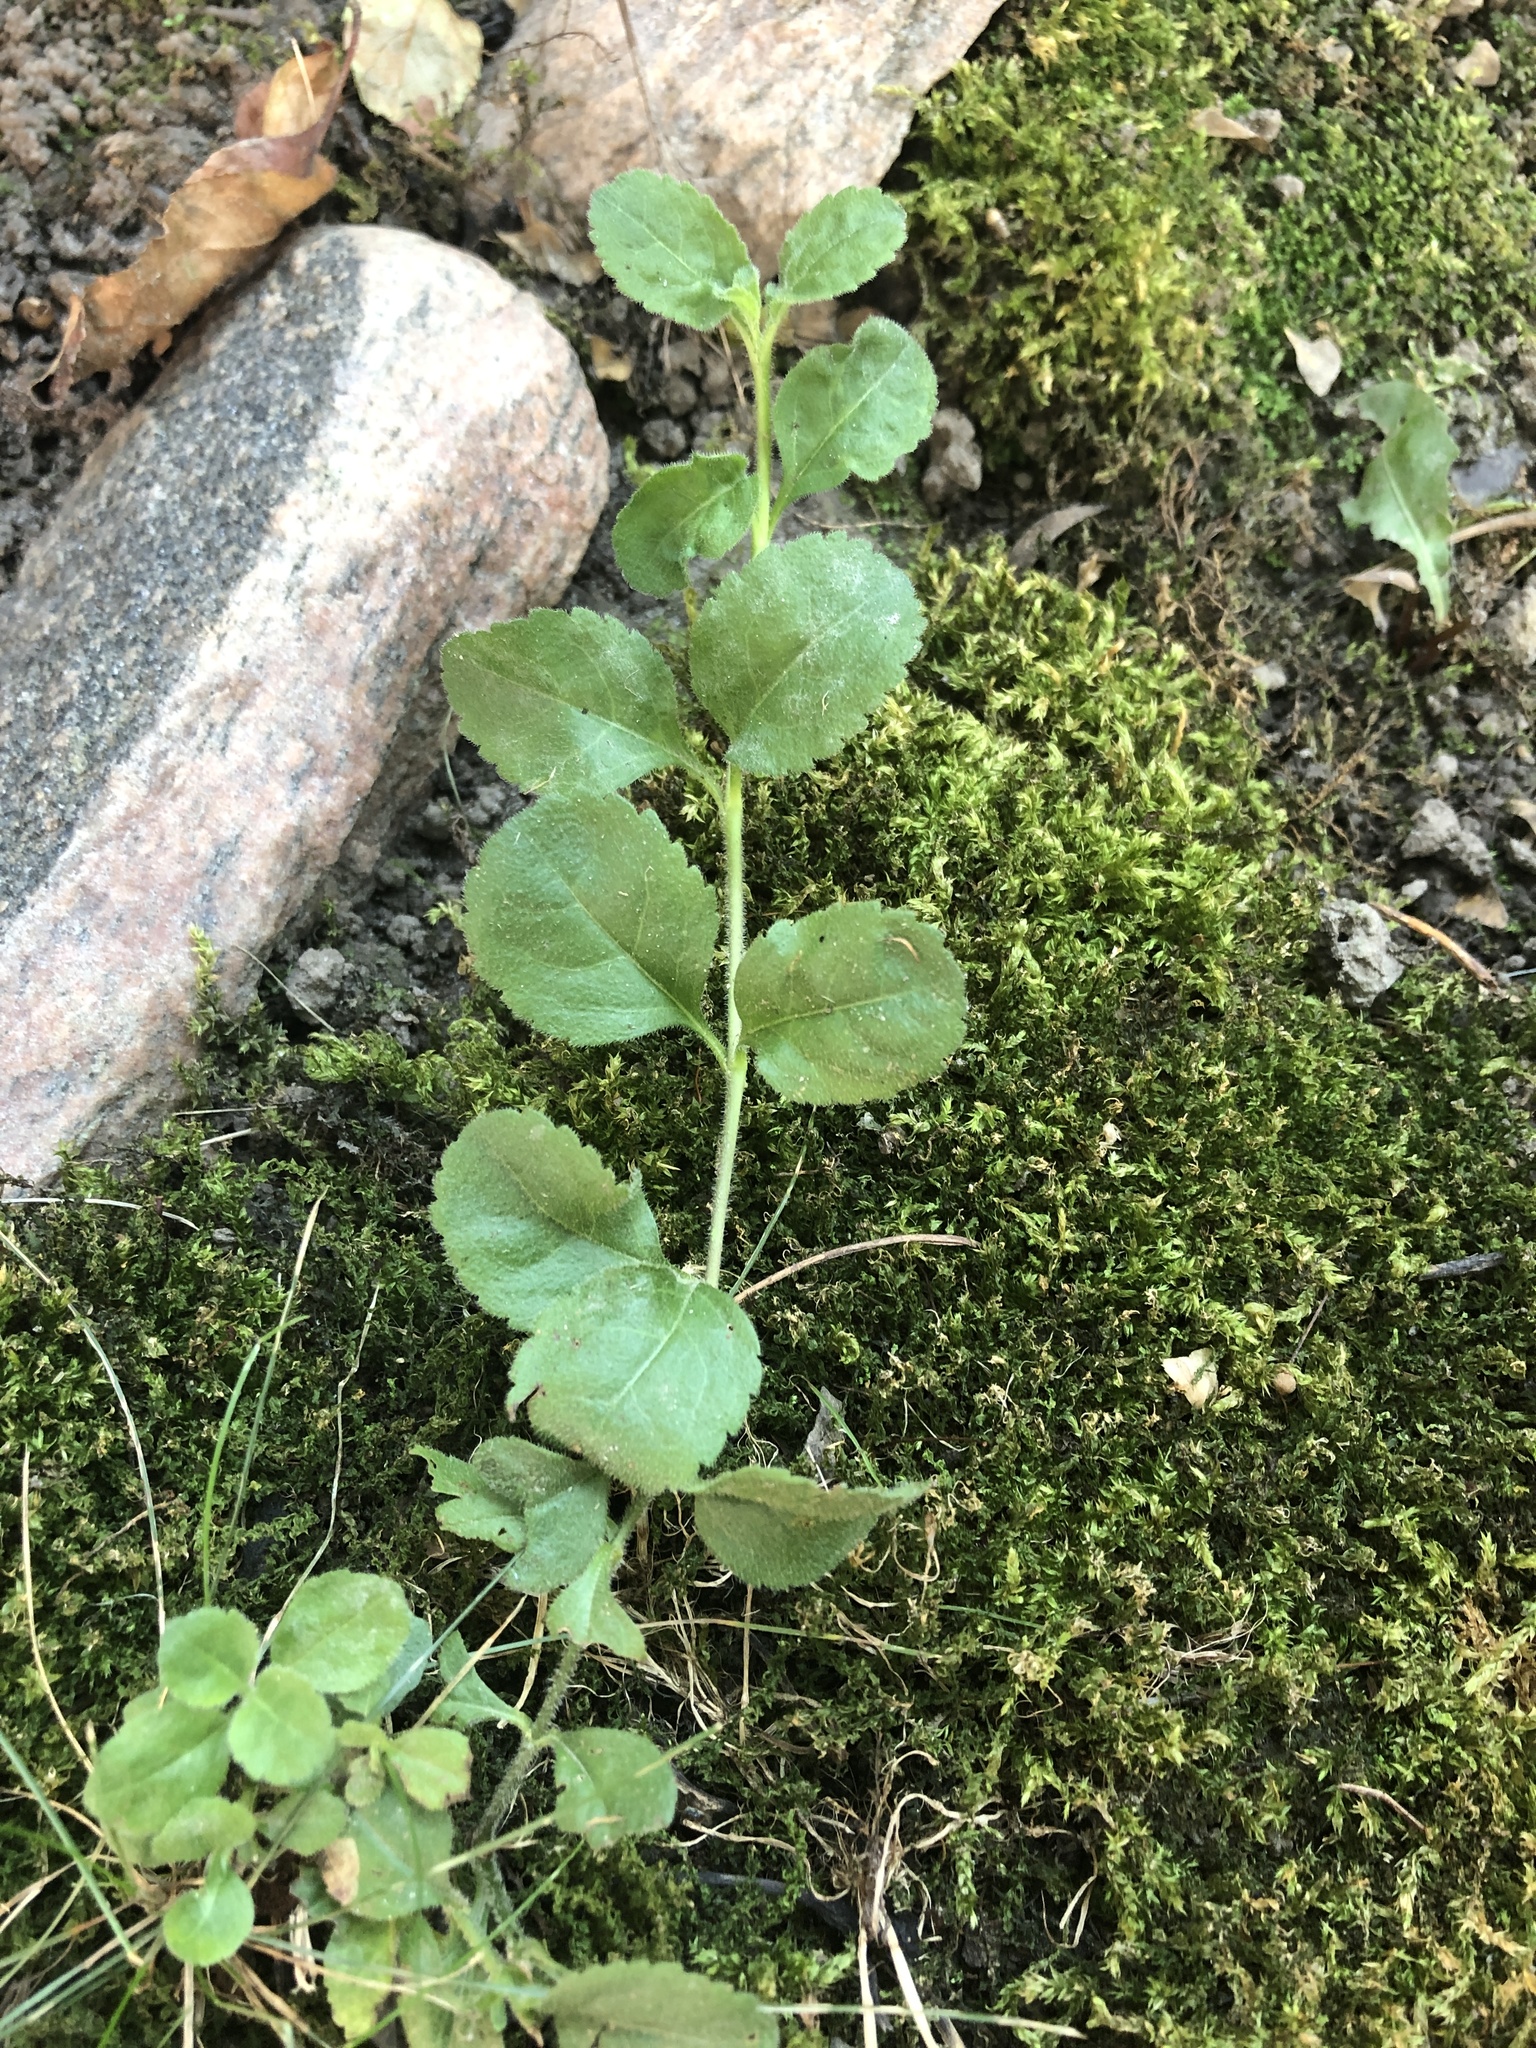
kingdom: Plantae
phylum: Tracheophyta
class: Magnoliopsida
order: Lamiales
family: Plantaginaceae
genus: Veronica
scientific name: Veronica officinalis
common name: Common speedwell
